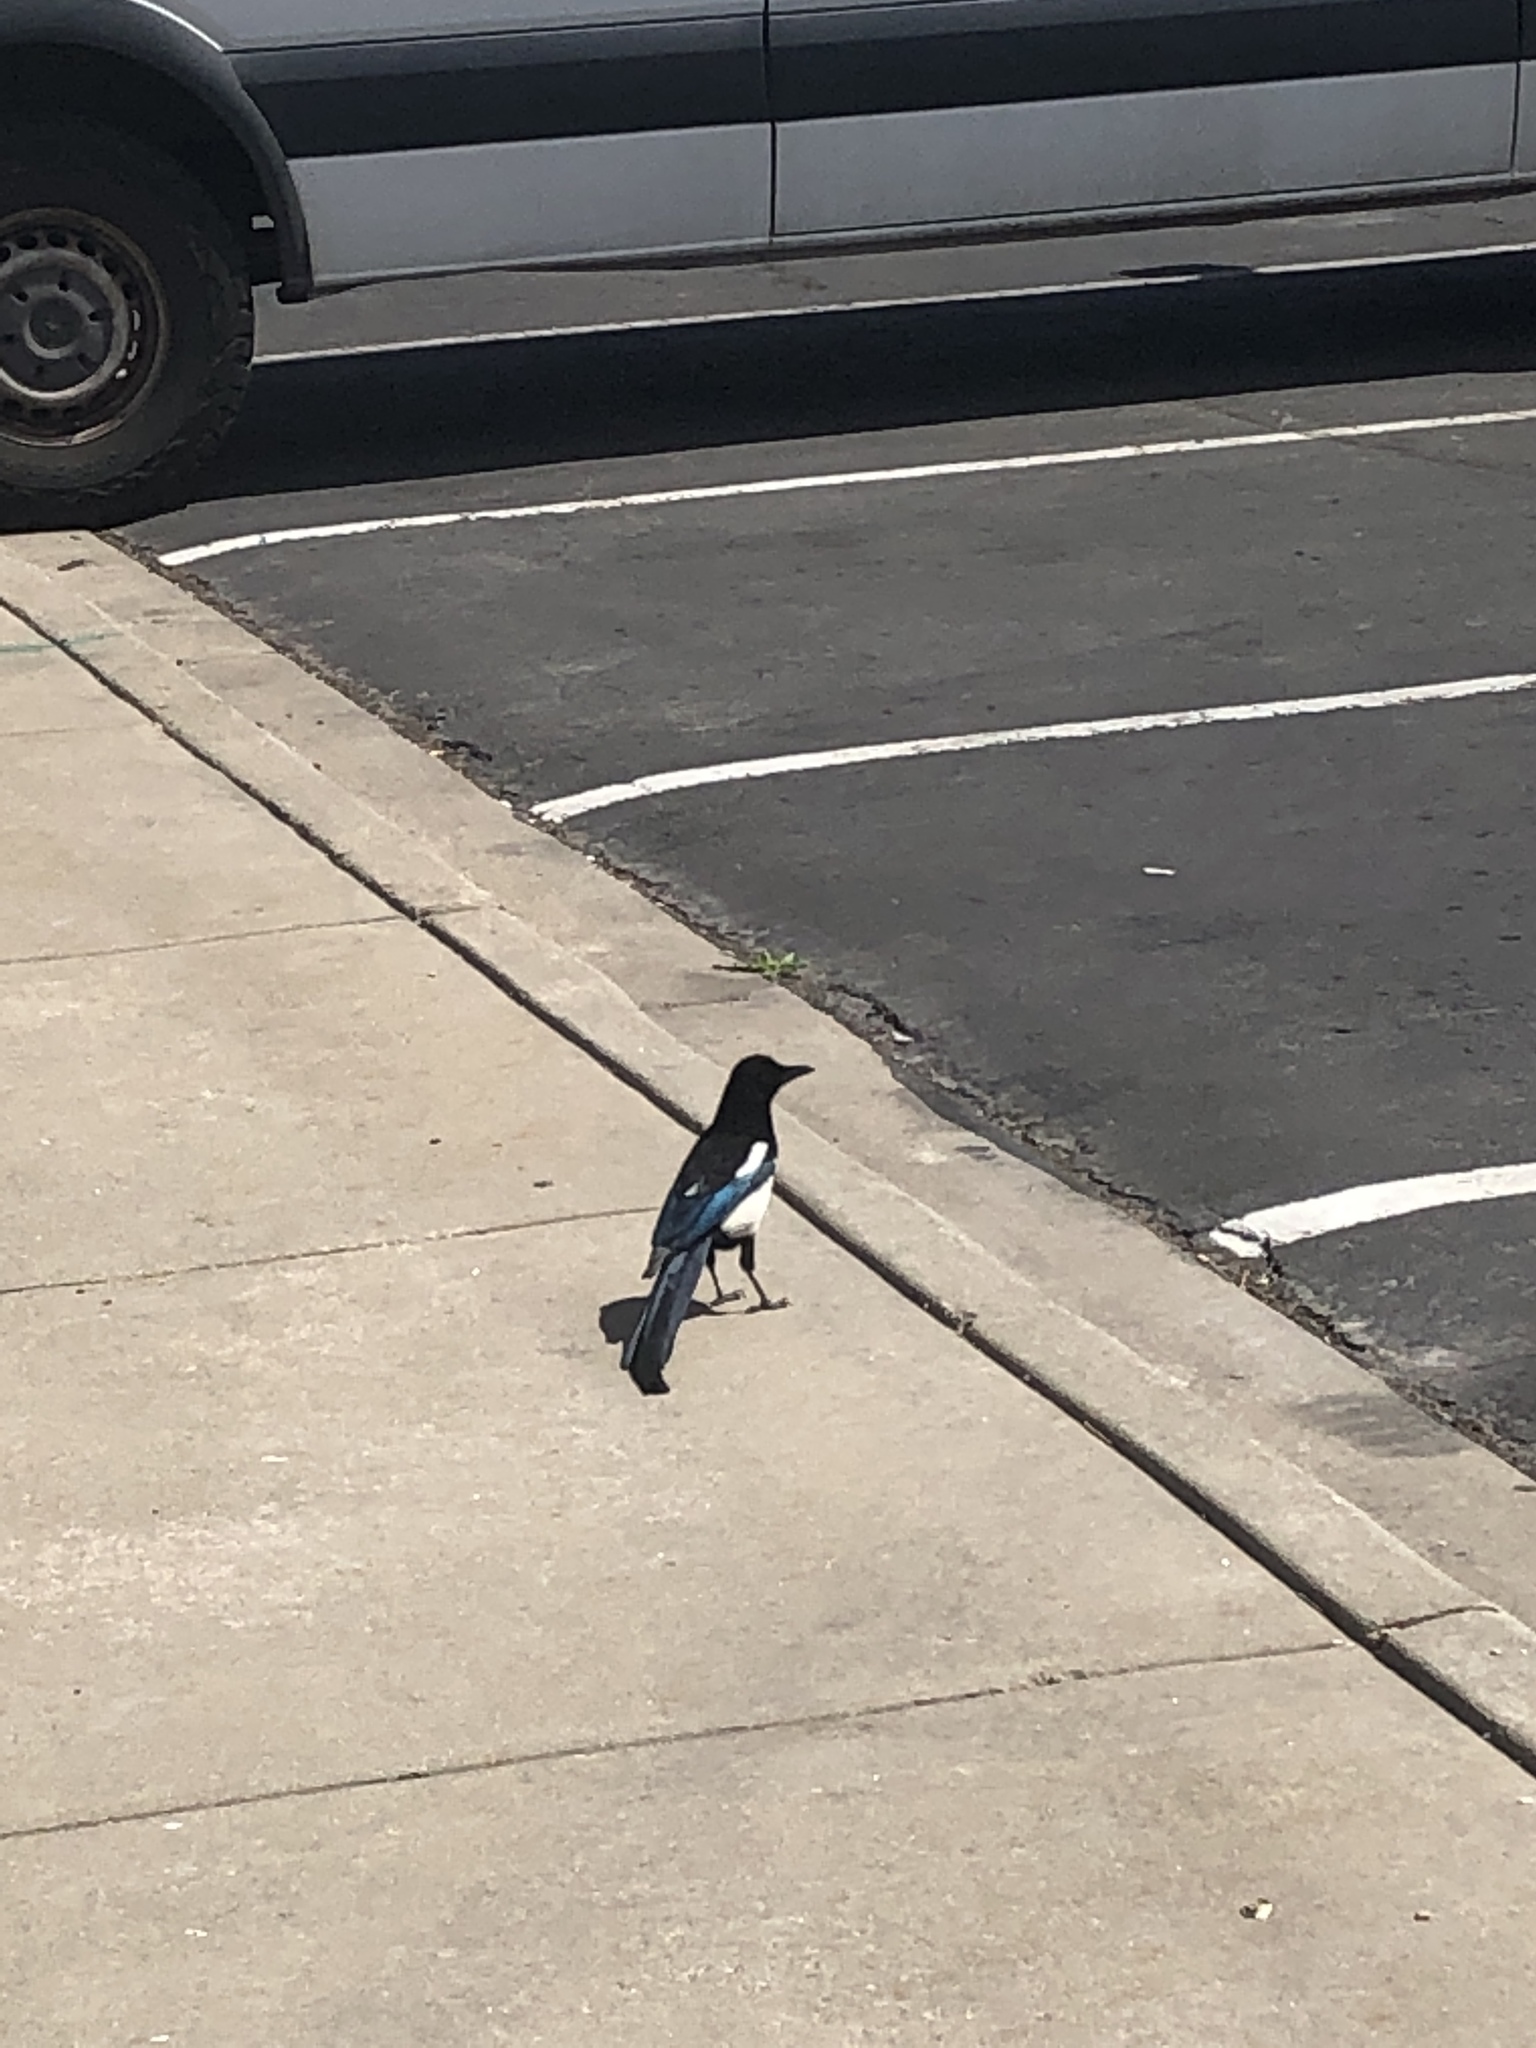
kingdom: Animalia
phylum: Chordata
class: Aves
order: Passeriformes
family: Corvidae
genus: Pica
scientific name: Pica hudsonia
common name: Black-billed magpie
